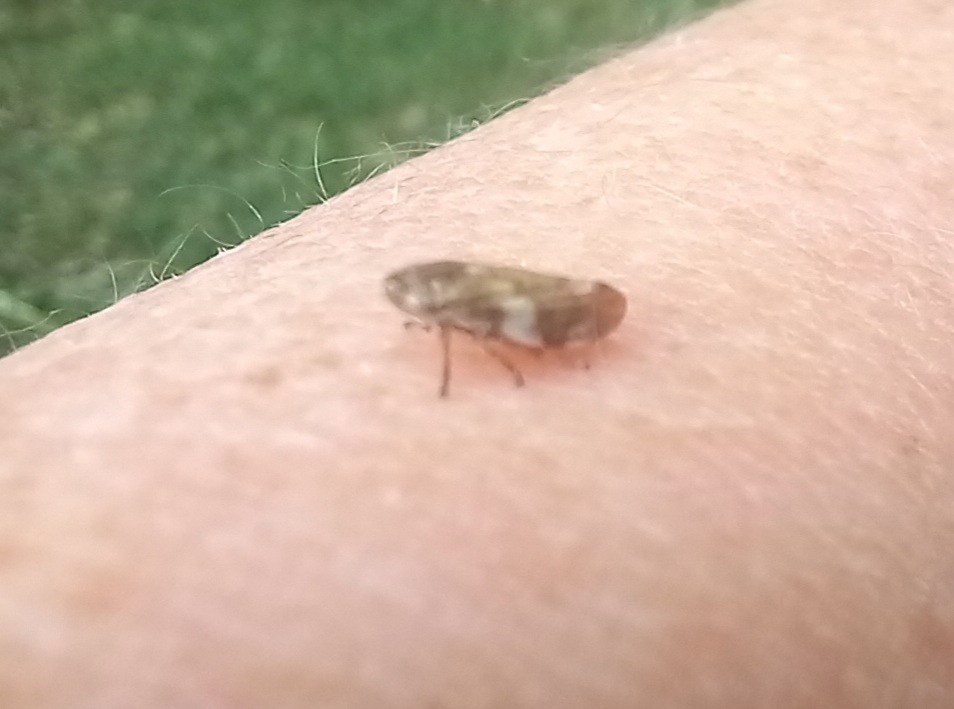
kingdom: Animalia
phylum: Arthropoda
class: Insecta
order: Hemiptera
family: Aphrophoridae
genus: Philaenus
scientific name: Philaenus spumarius
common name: Meadow spittlebug
